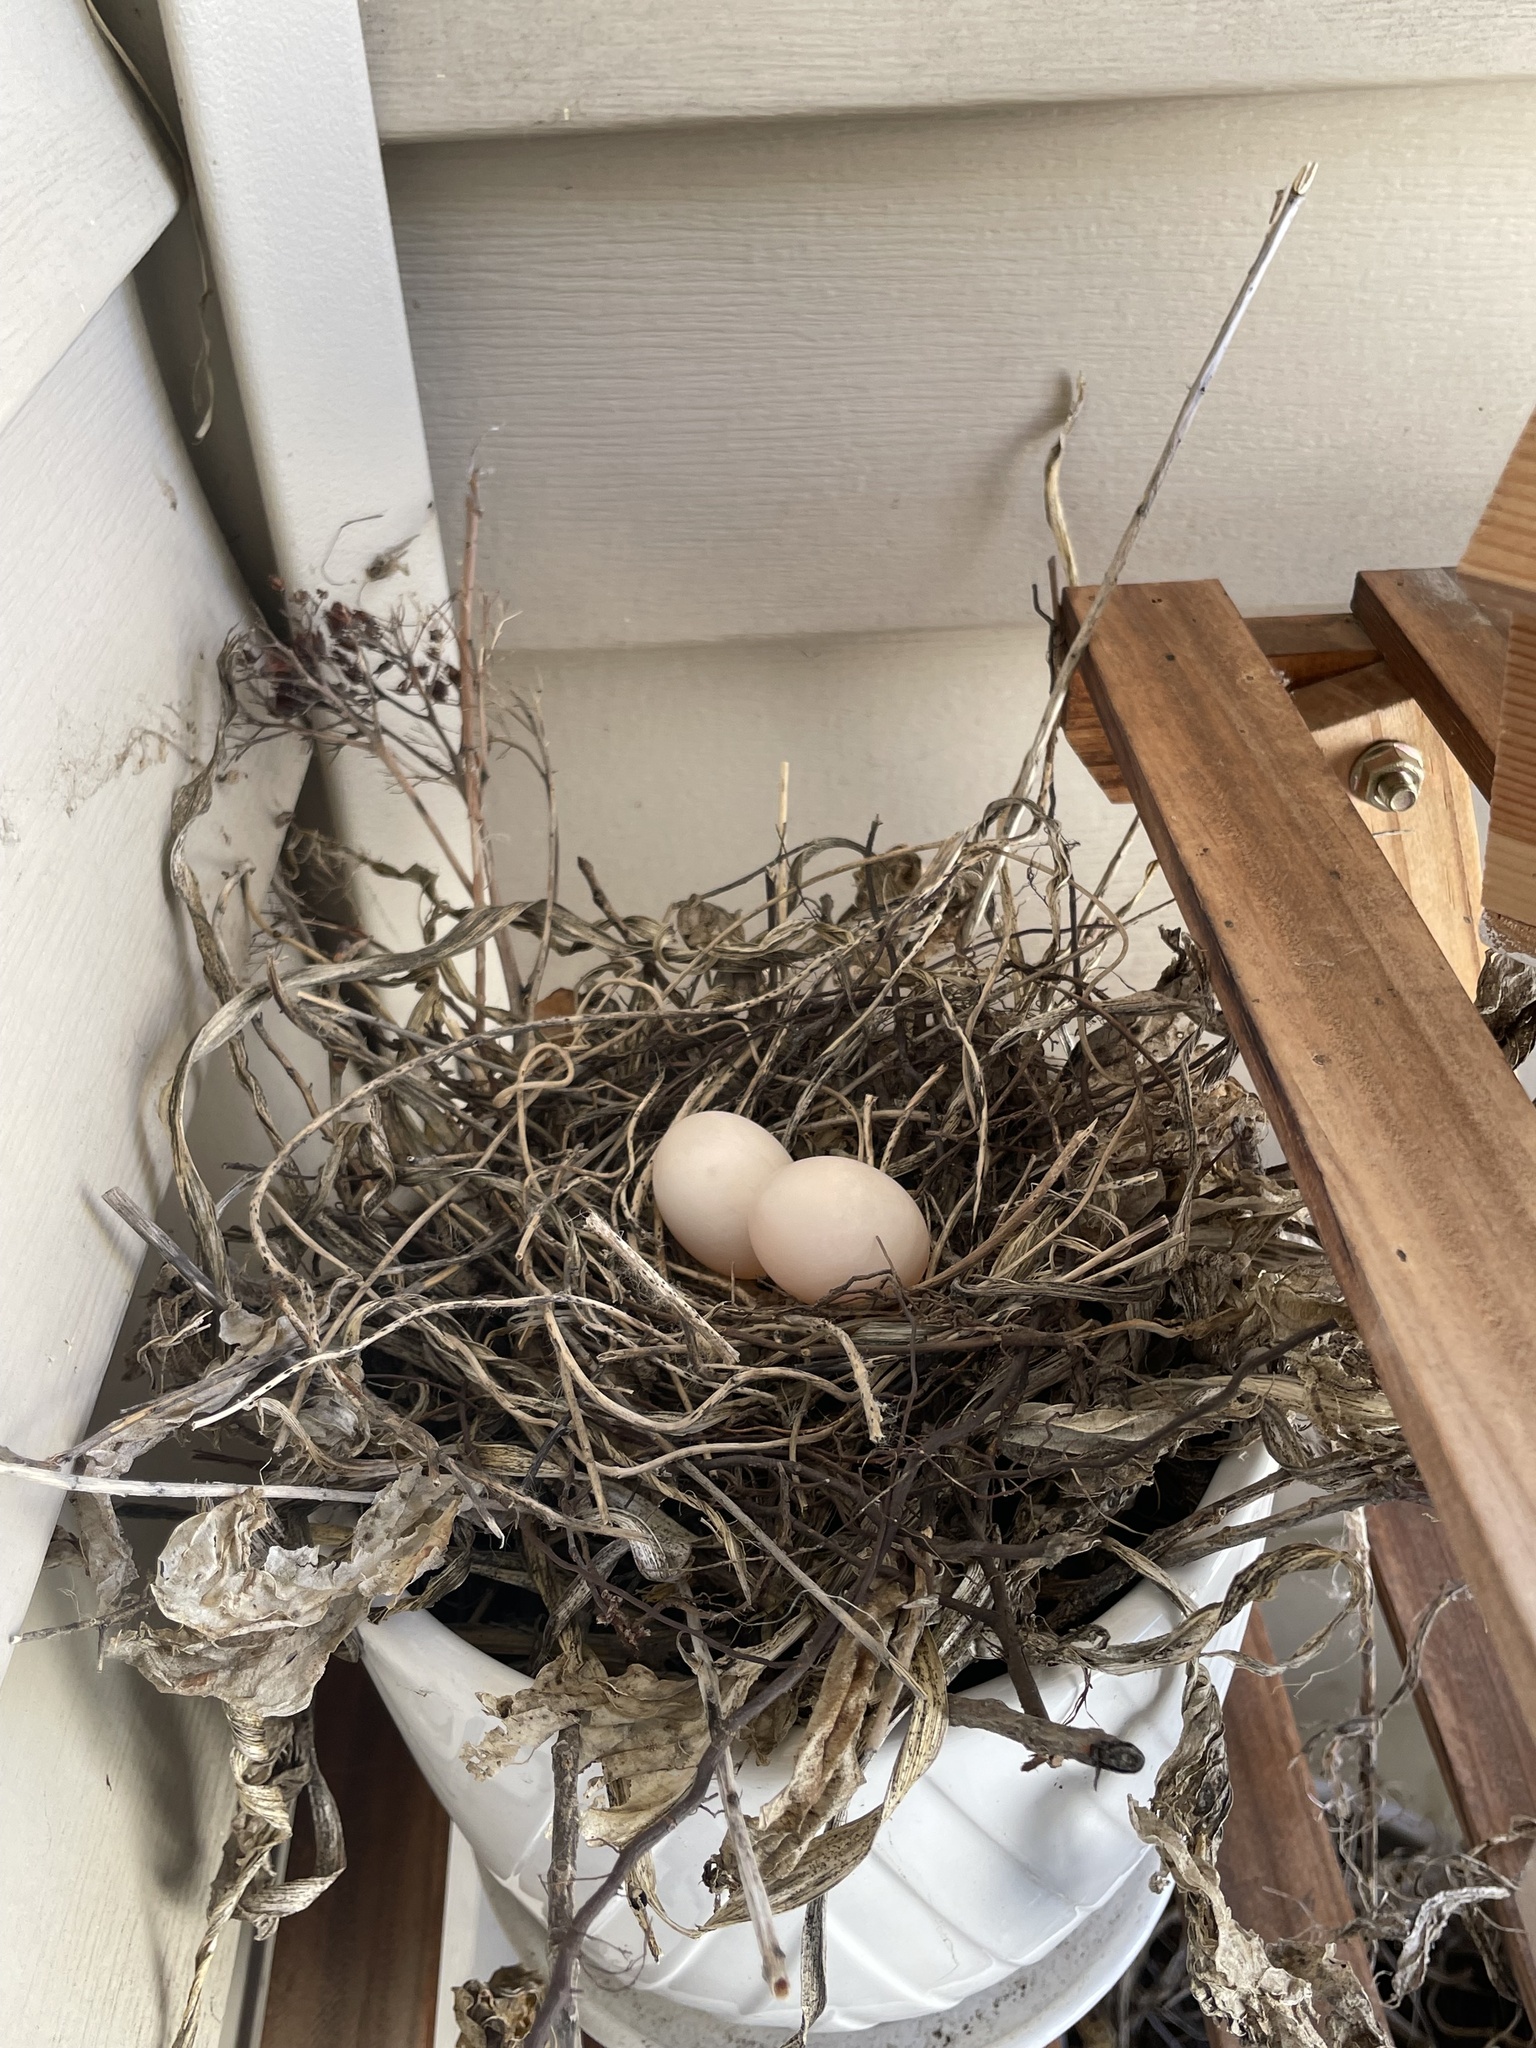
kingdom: Animalia
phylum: Chordata
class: Aves
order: Columbiformes
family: Columbidae
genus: Zenaida
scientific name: Zenaida macroura
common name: Mourning dove
